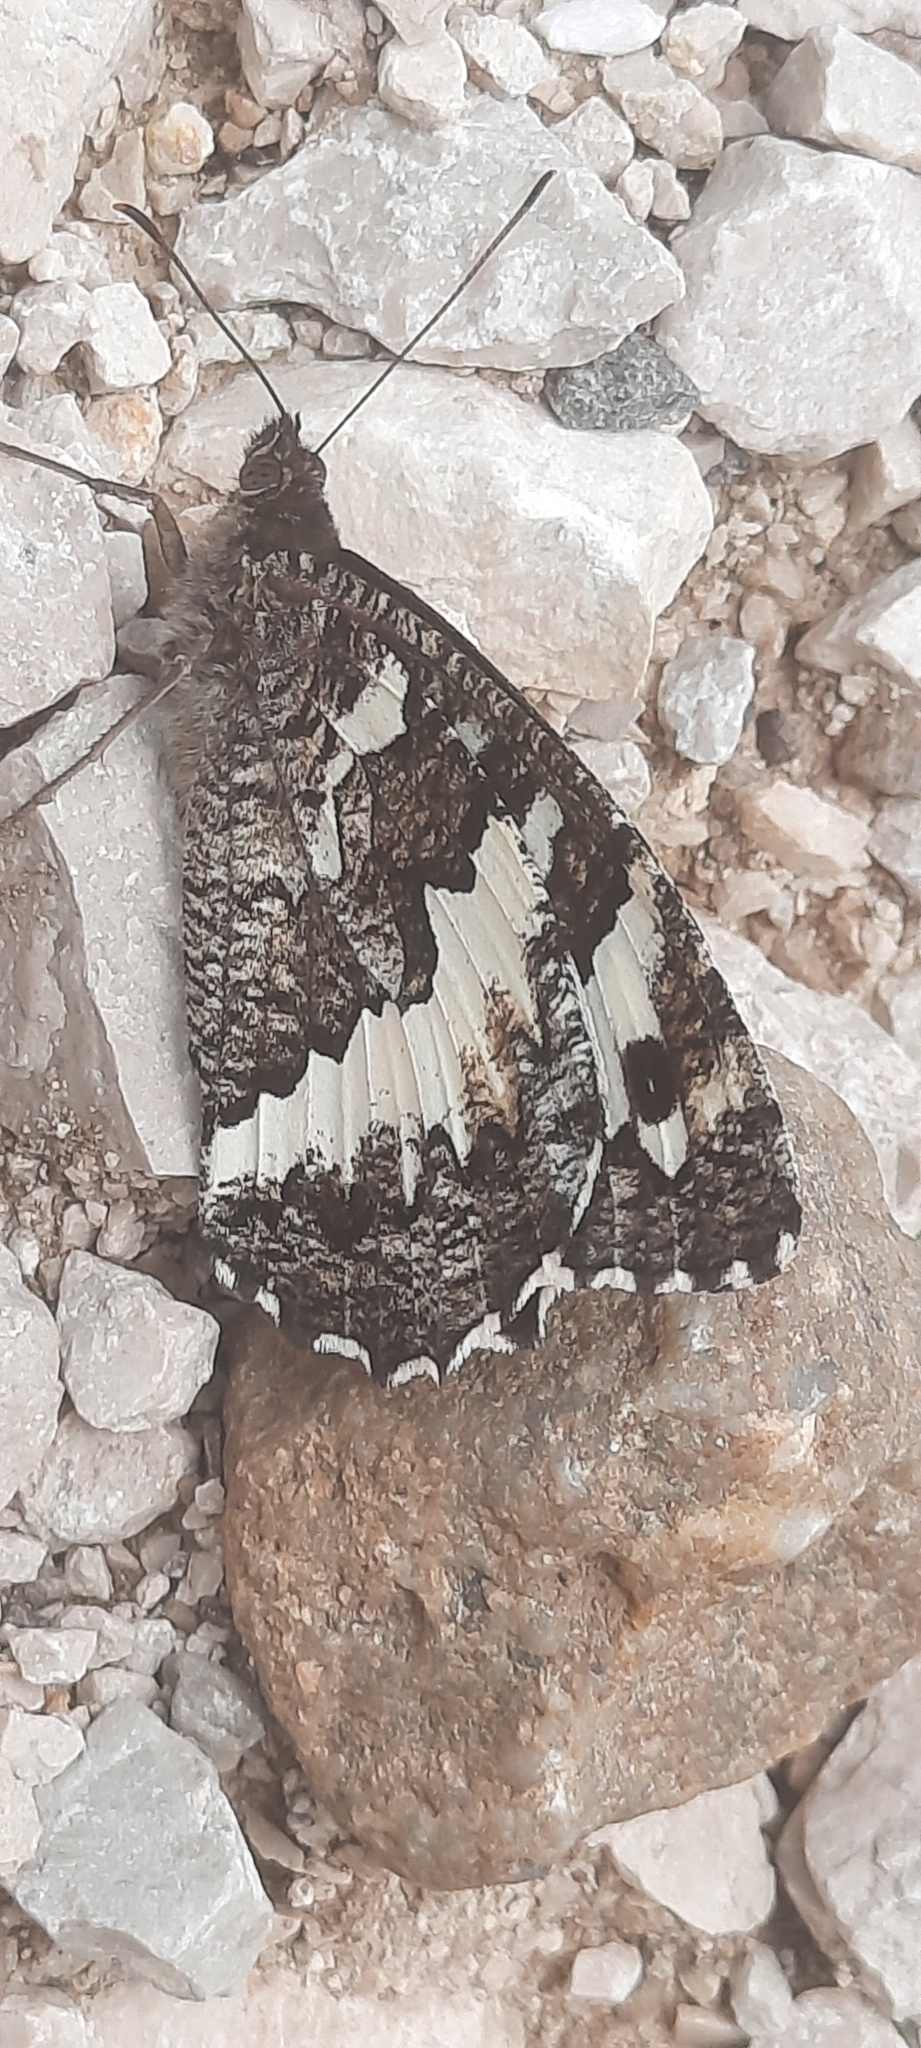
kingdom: Animalia
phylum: Arthropoda
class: Insecta
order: Lepidoptera
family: Lycaenidae
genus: Loweia
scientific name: Loweia tityrus
